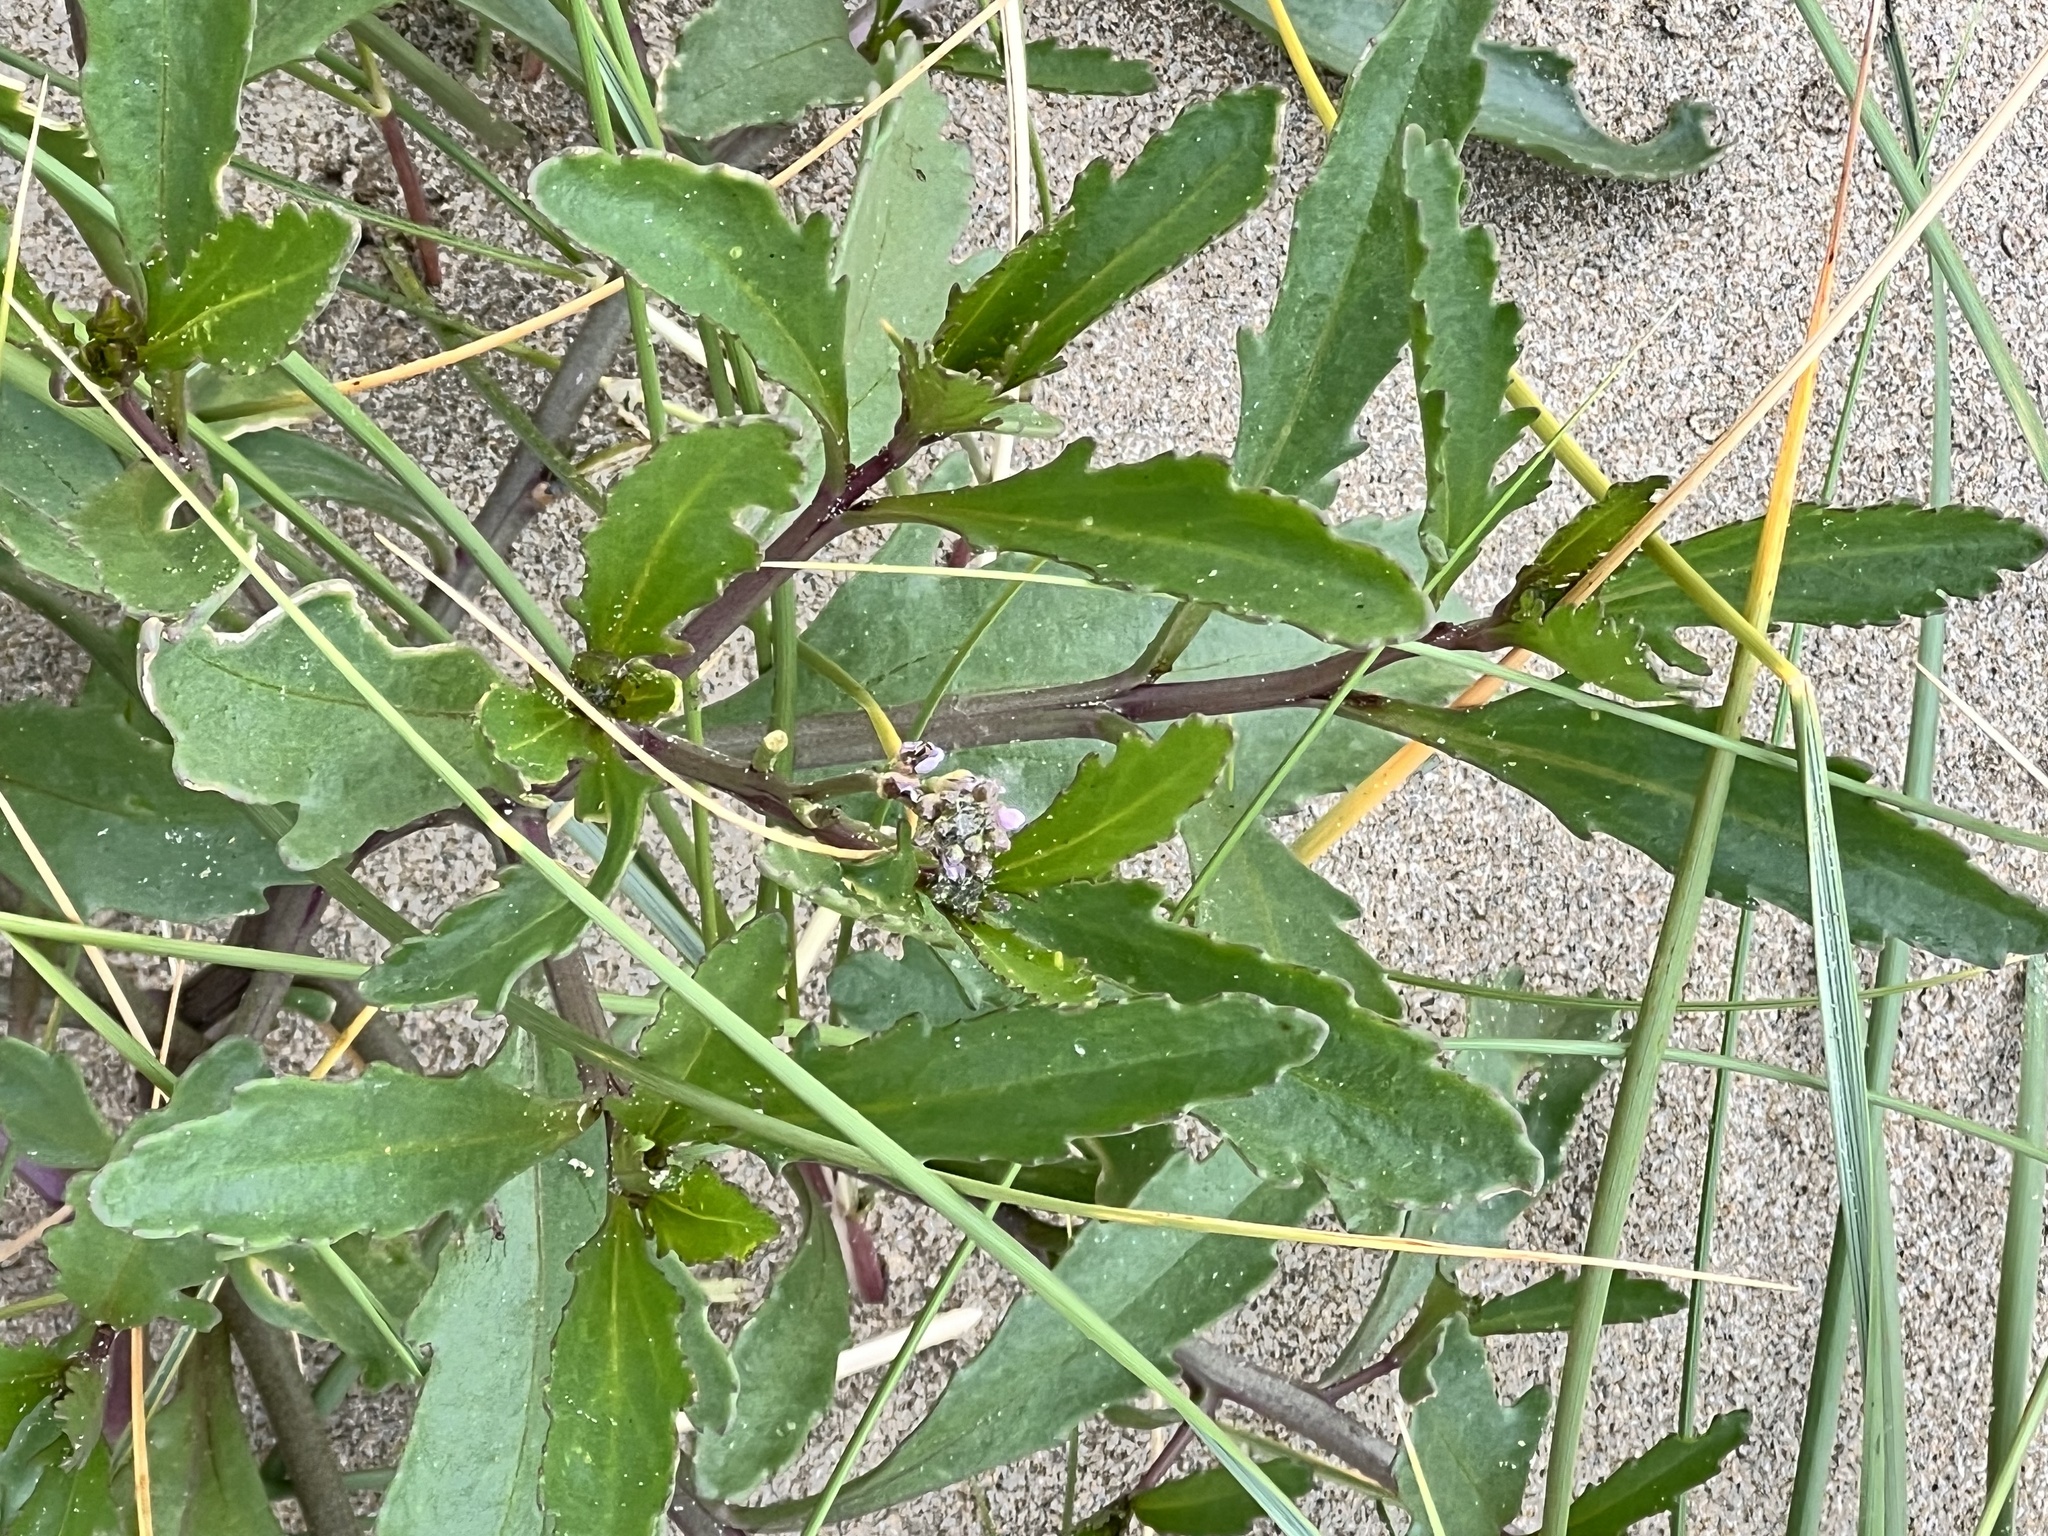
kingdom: Plantae
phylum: Tracheophyta
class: Magnoliopsida
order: Brassicales
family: Brassicaceae
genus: Cakile
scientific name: Cakile edentula
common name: American sea rocket
